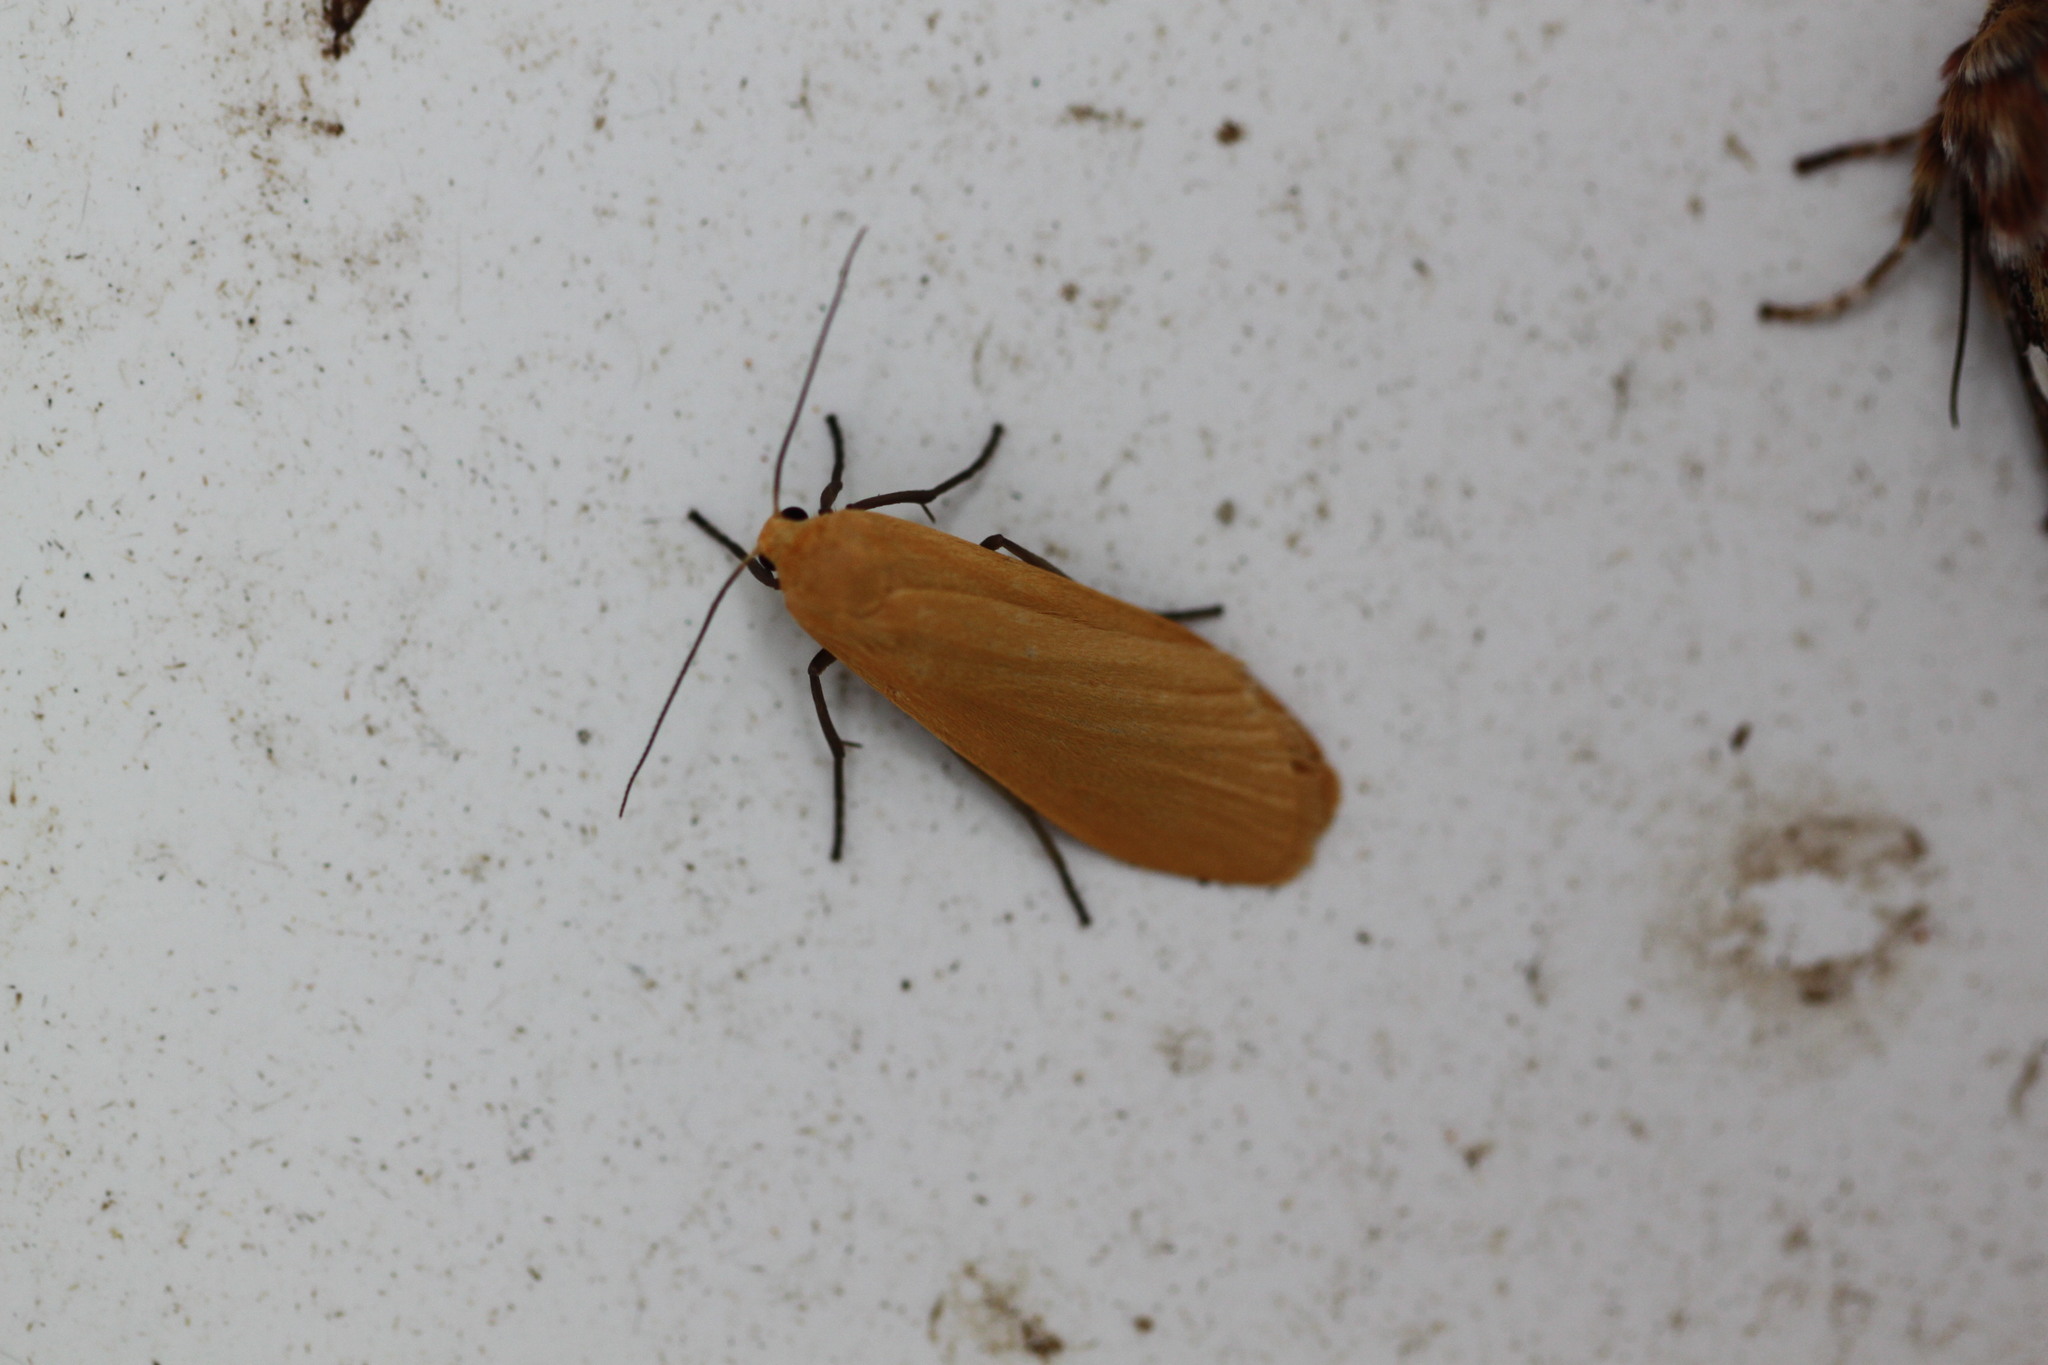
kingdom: Animalia
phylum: Arthropoda
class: Insecta
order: Lepidoptera
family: Erebidae
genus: Wittia
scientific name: Wittia sororcula
